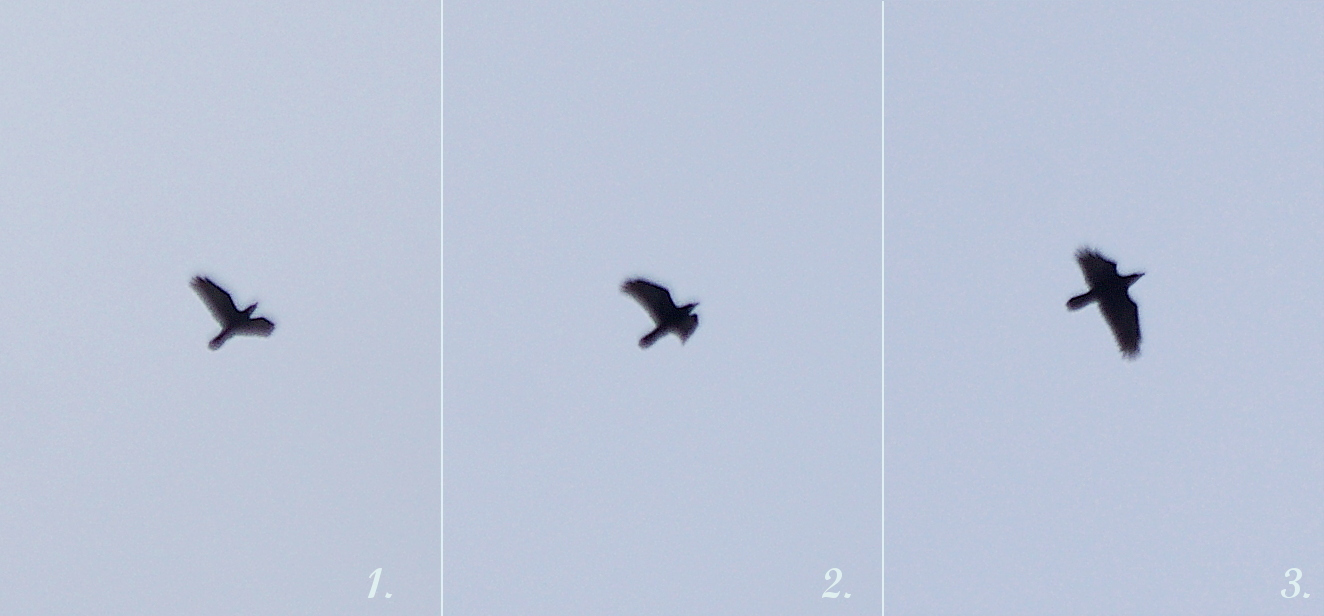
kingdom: Animalia
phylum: Chordata
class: Aves
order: Passeriformes
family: Corvidae
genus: Corvus
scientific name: Corvus corax
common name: Common raven
